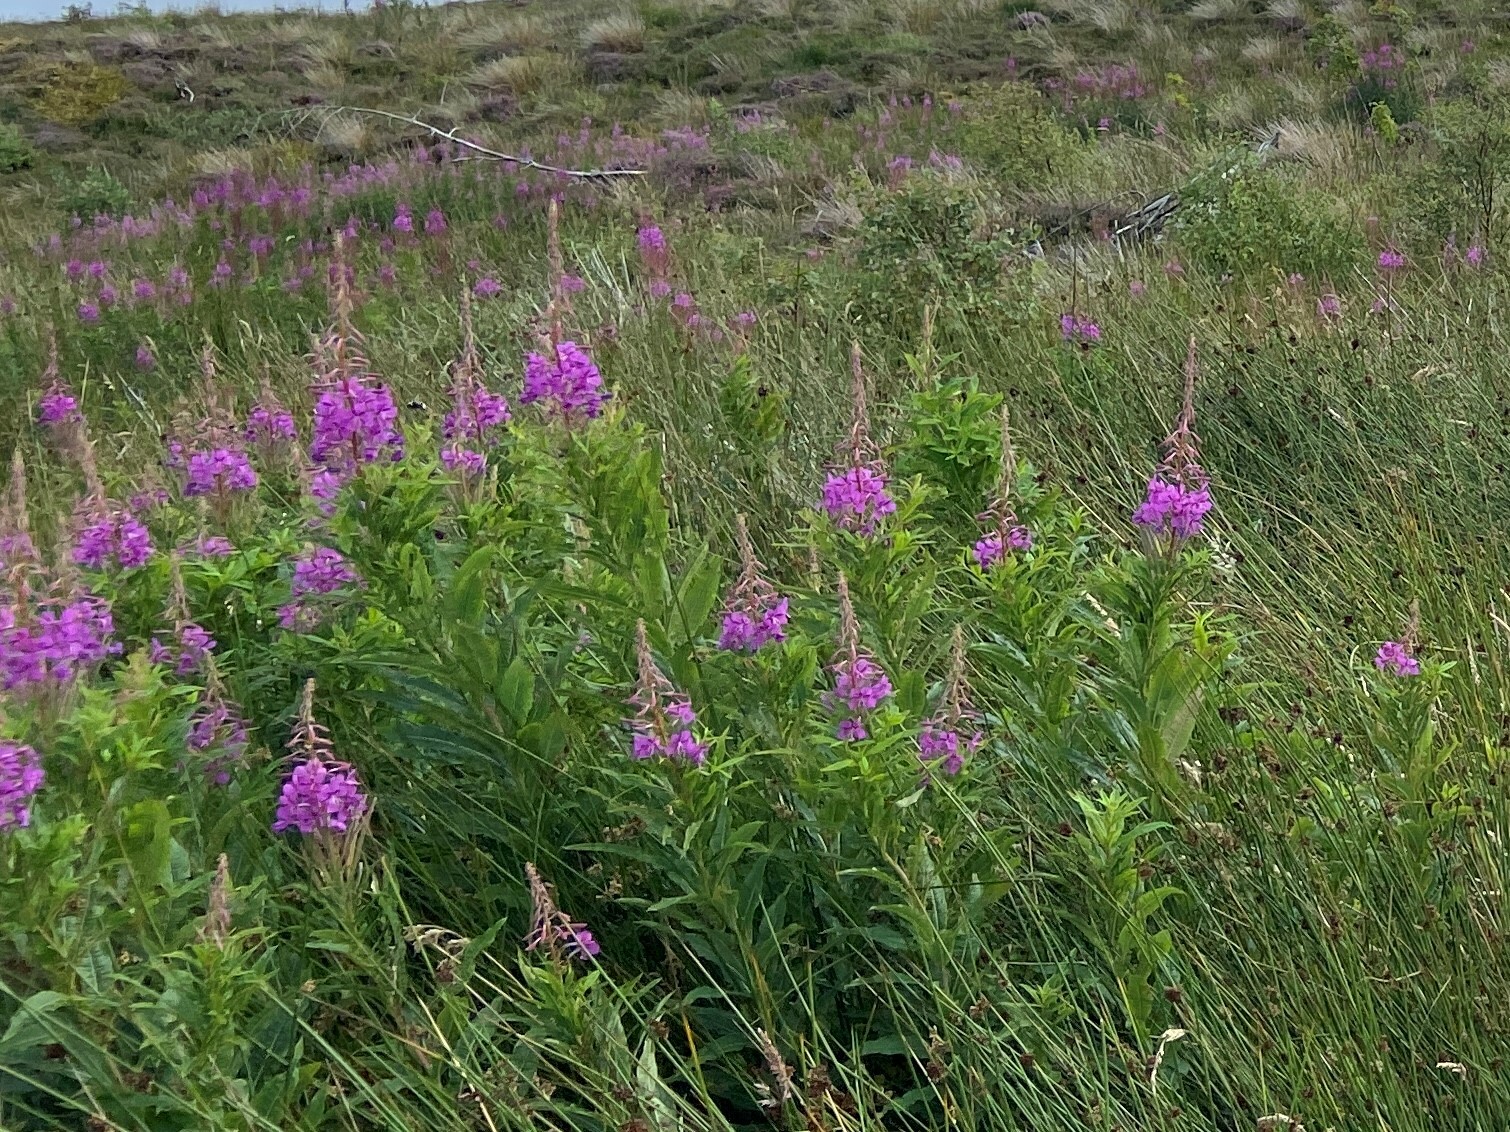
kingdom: Plantae
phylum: Tracheophyta
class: Magnoliopsida
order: Myrtales
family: Onagraceae
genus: Chamaenerion
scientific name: Chamaenerion angustifolium
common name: Fireweed
